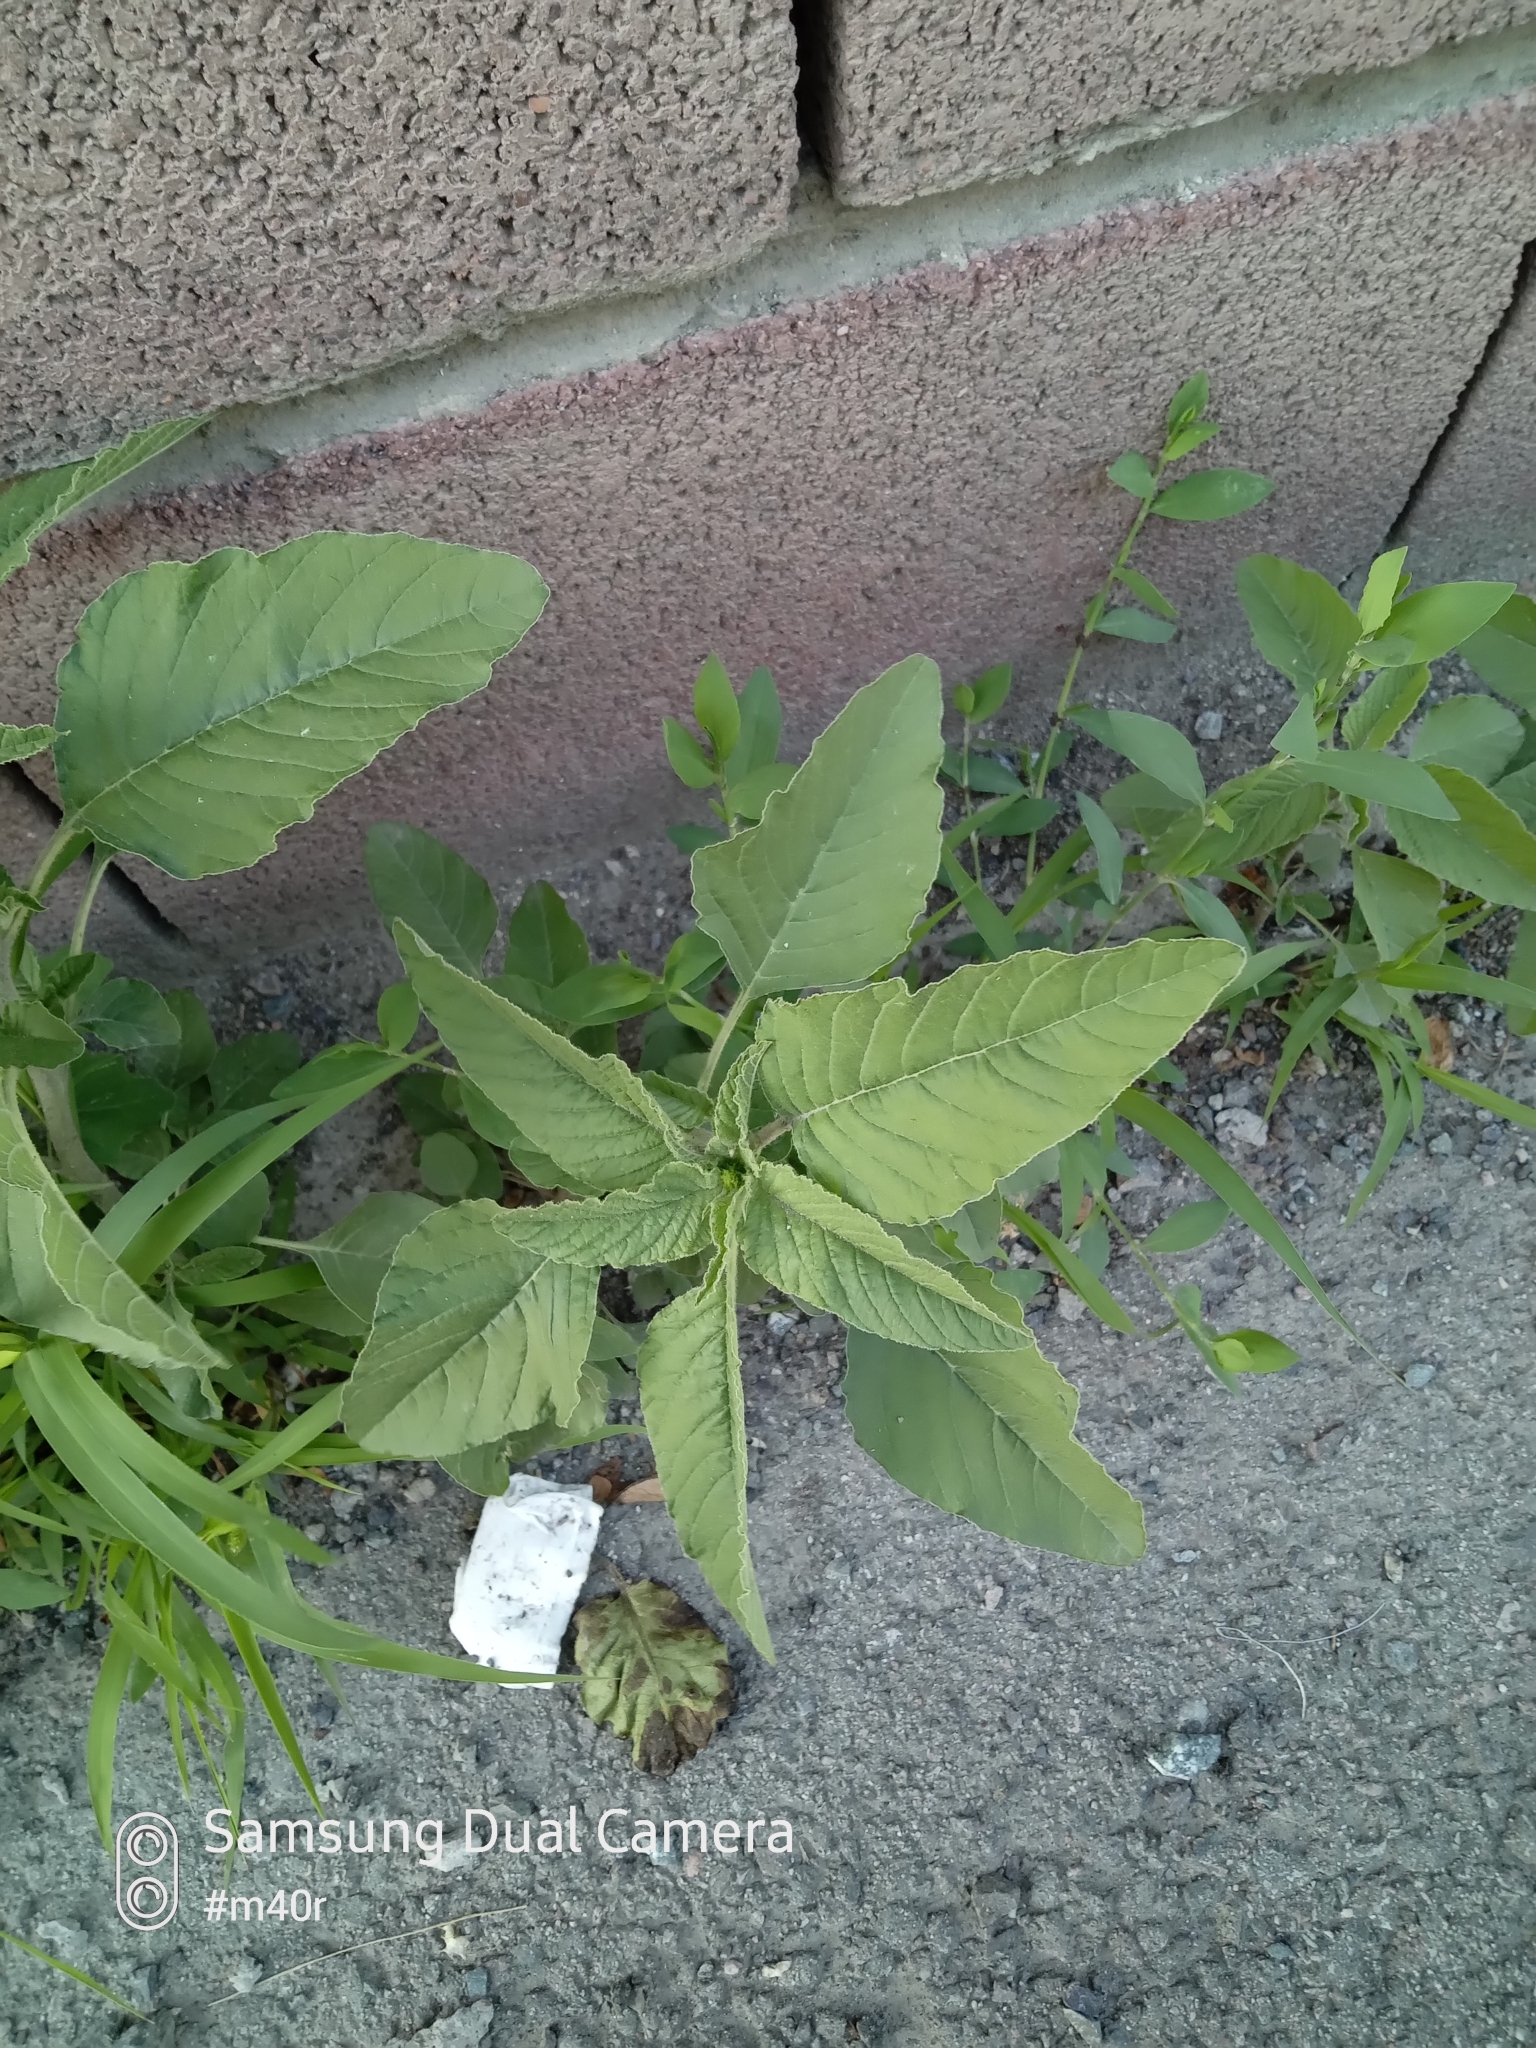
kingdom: Plantae
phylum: Tracheophyta
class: Magnoliopsida
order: Caryophyllales
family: Amaranthaceae
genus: Amaranthus
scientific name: Amaranthus retroflexus
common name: Redroot amaranth
